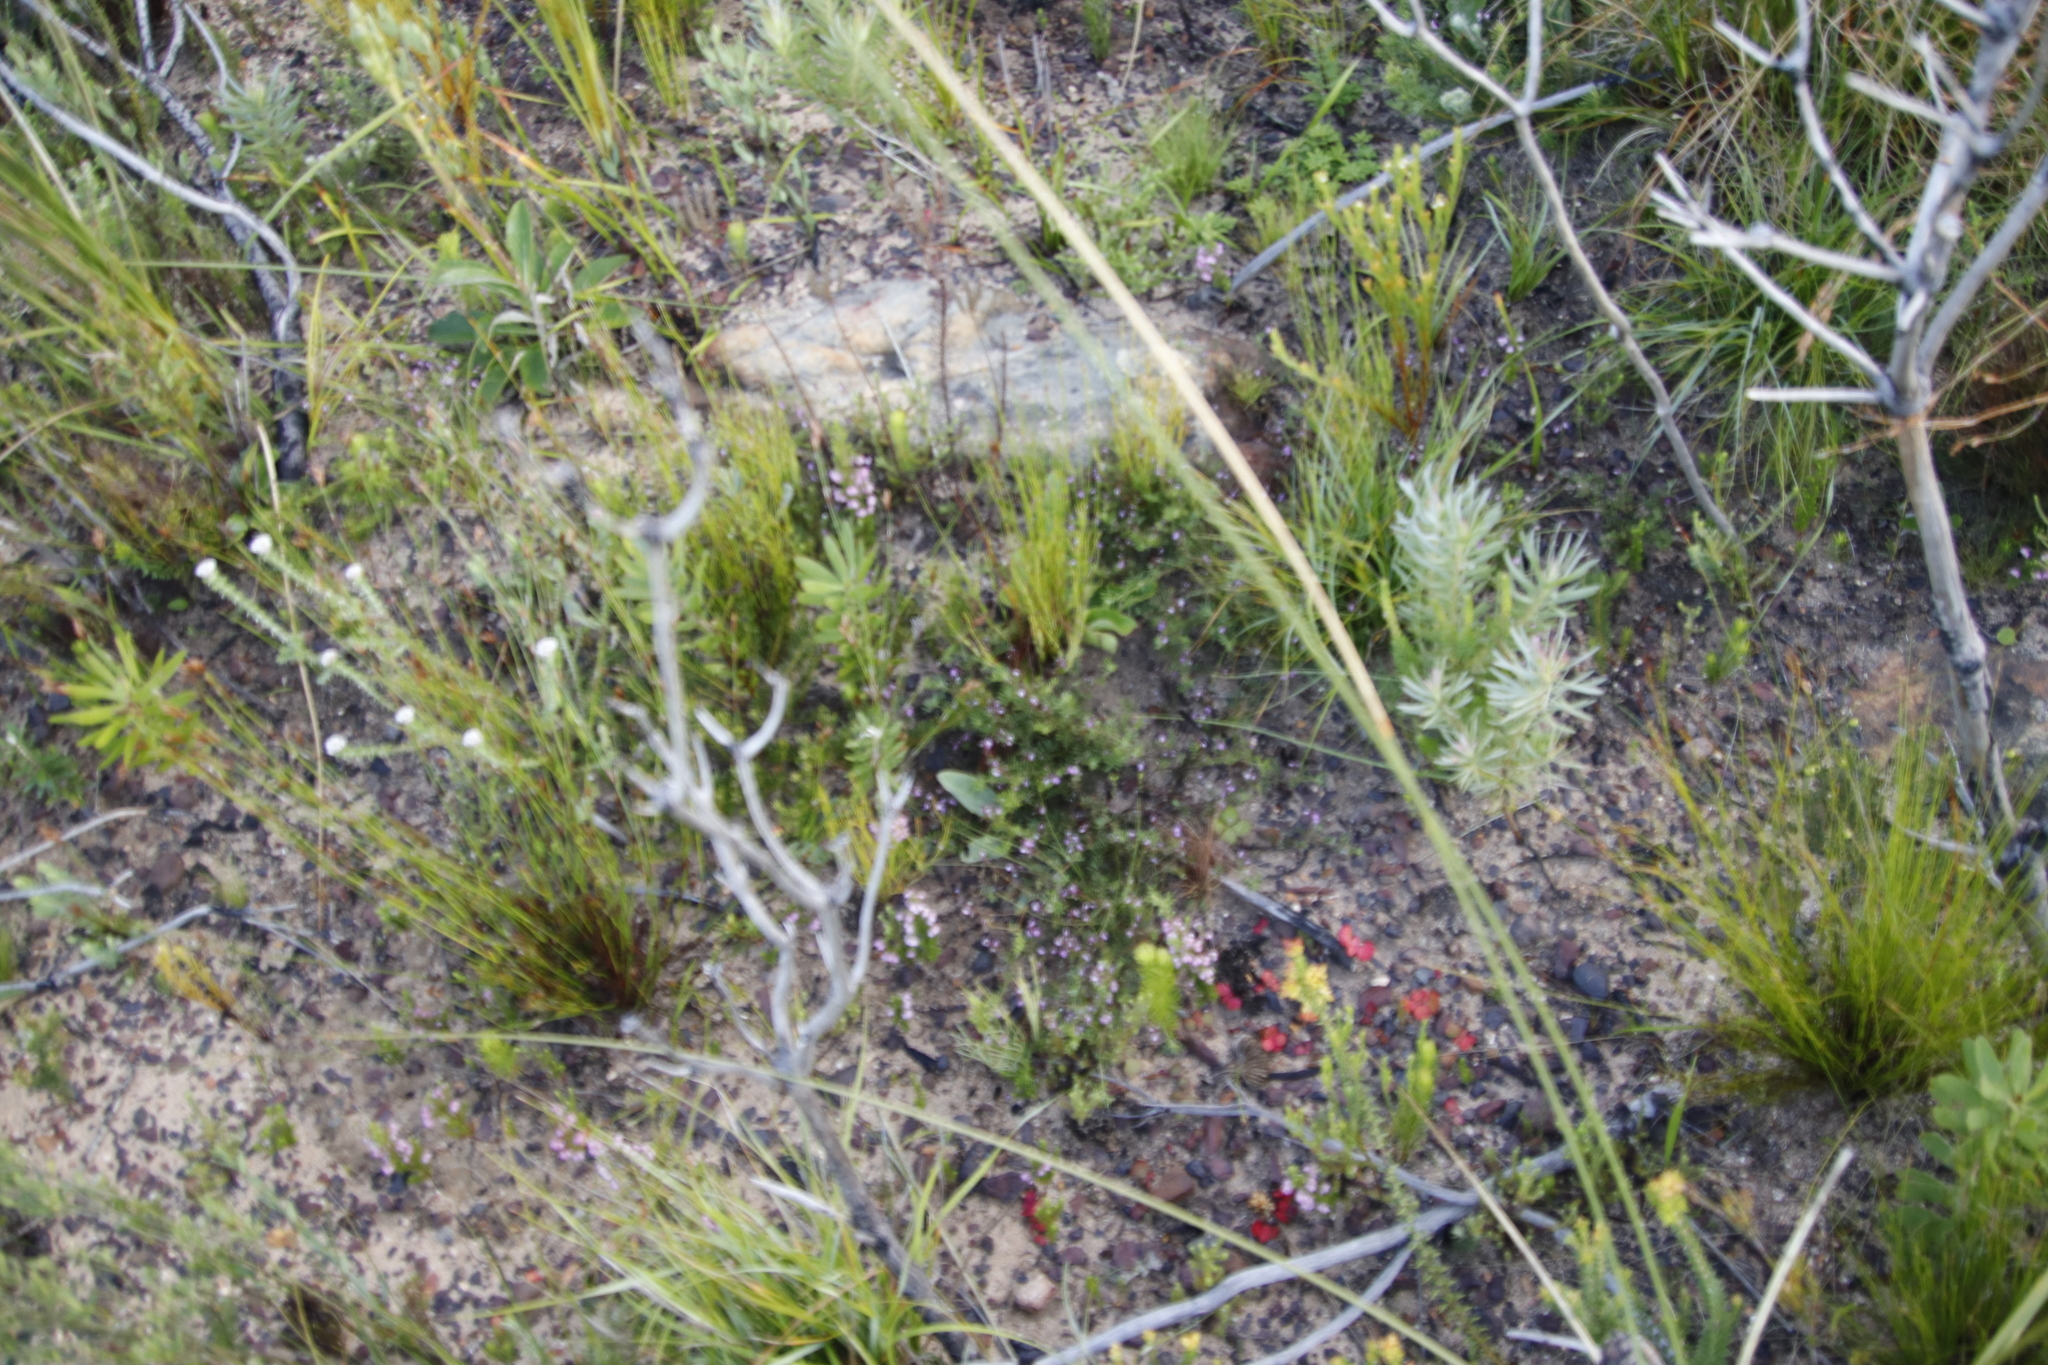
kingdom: Plantae
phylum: Tracheophyta
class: Magnoliopsida
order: Fabales
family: Fabaceae
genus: Indigofera
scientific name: Indigofera angustifolia
